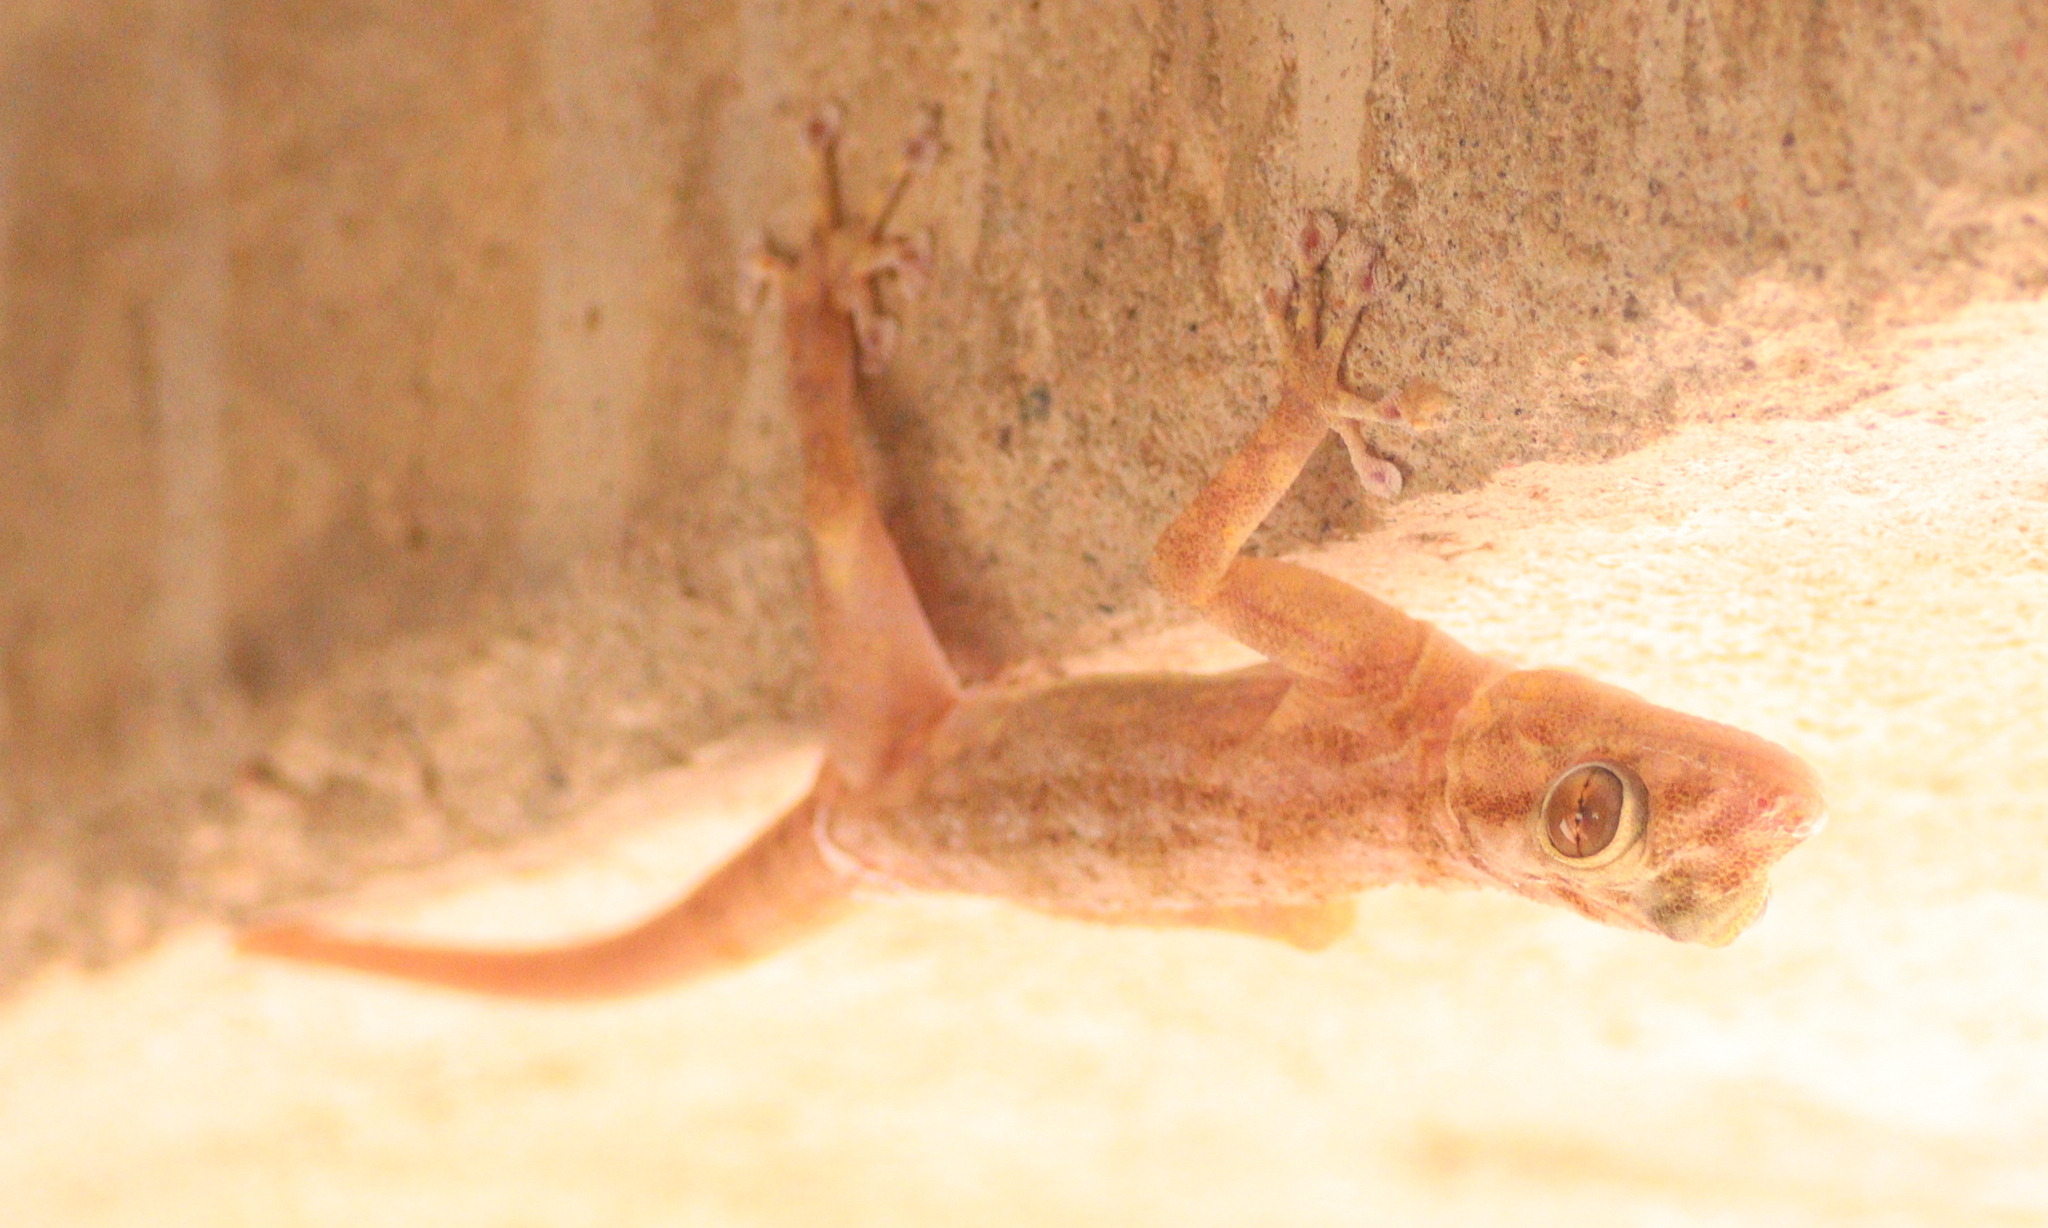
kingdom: Animalia
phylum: Chordata
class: Squamata
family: Phyllodactylidae
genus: Ptyodactylus
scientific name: Ptyodactylus hasselquistii
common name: Hasselquist’s fan-footed gecko
